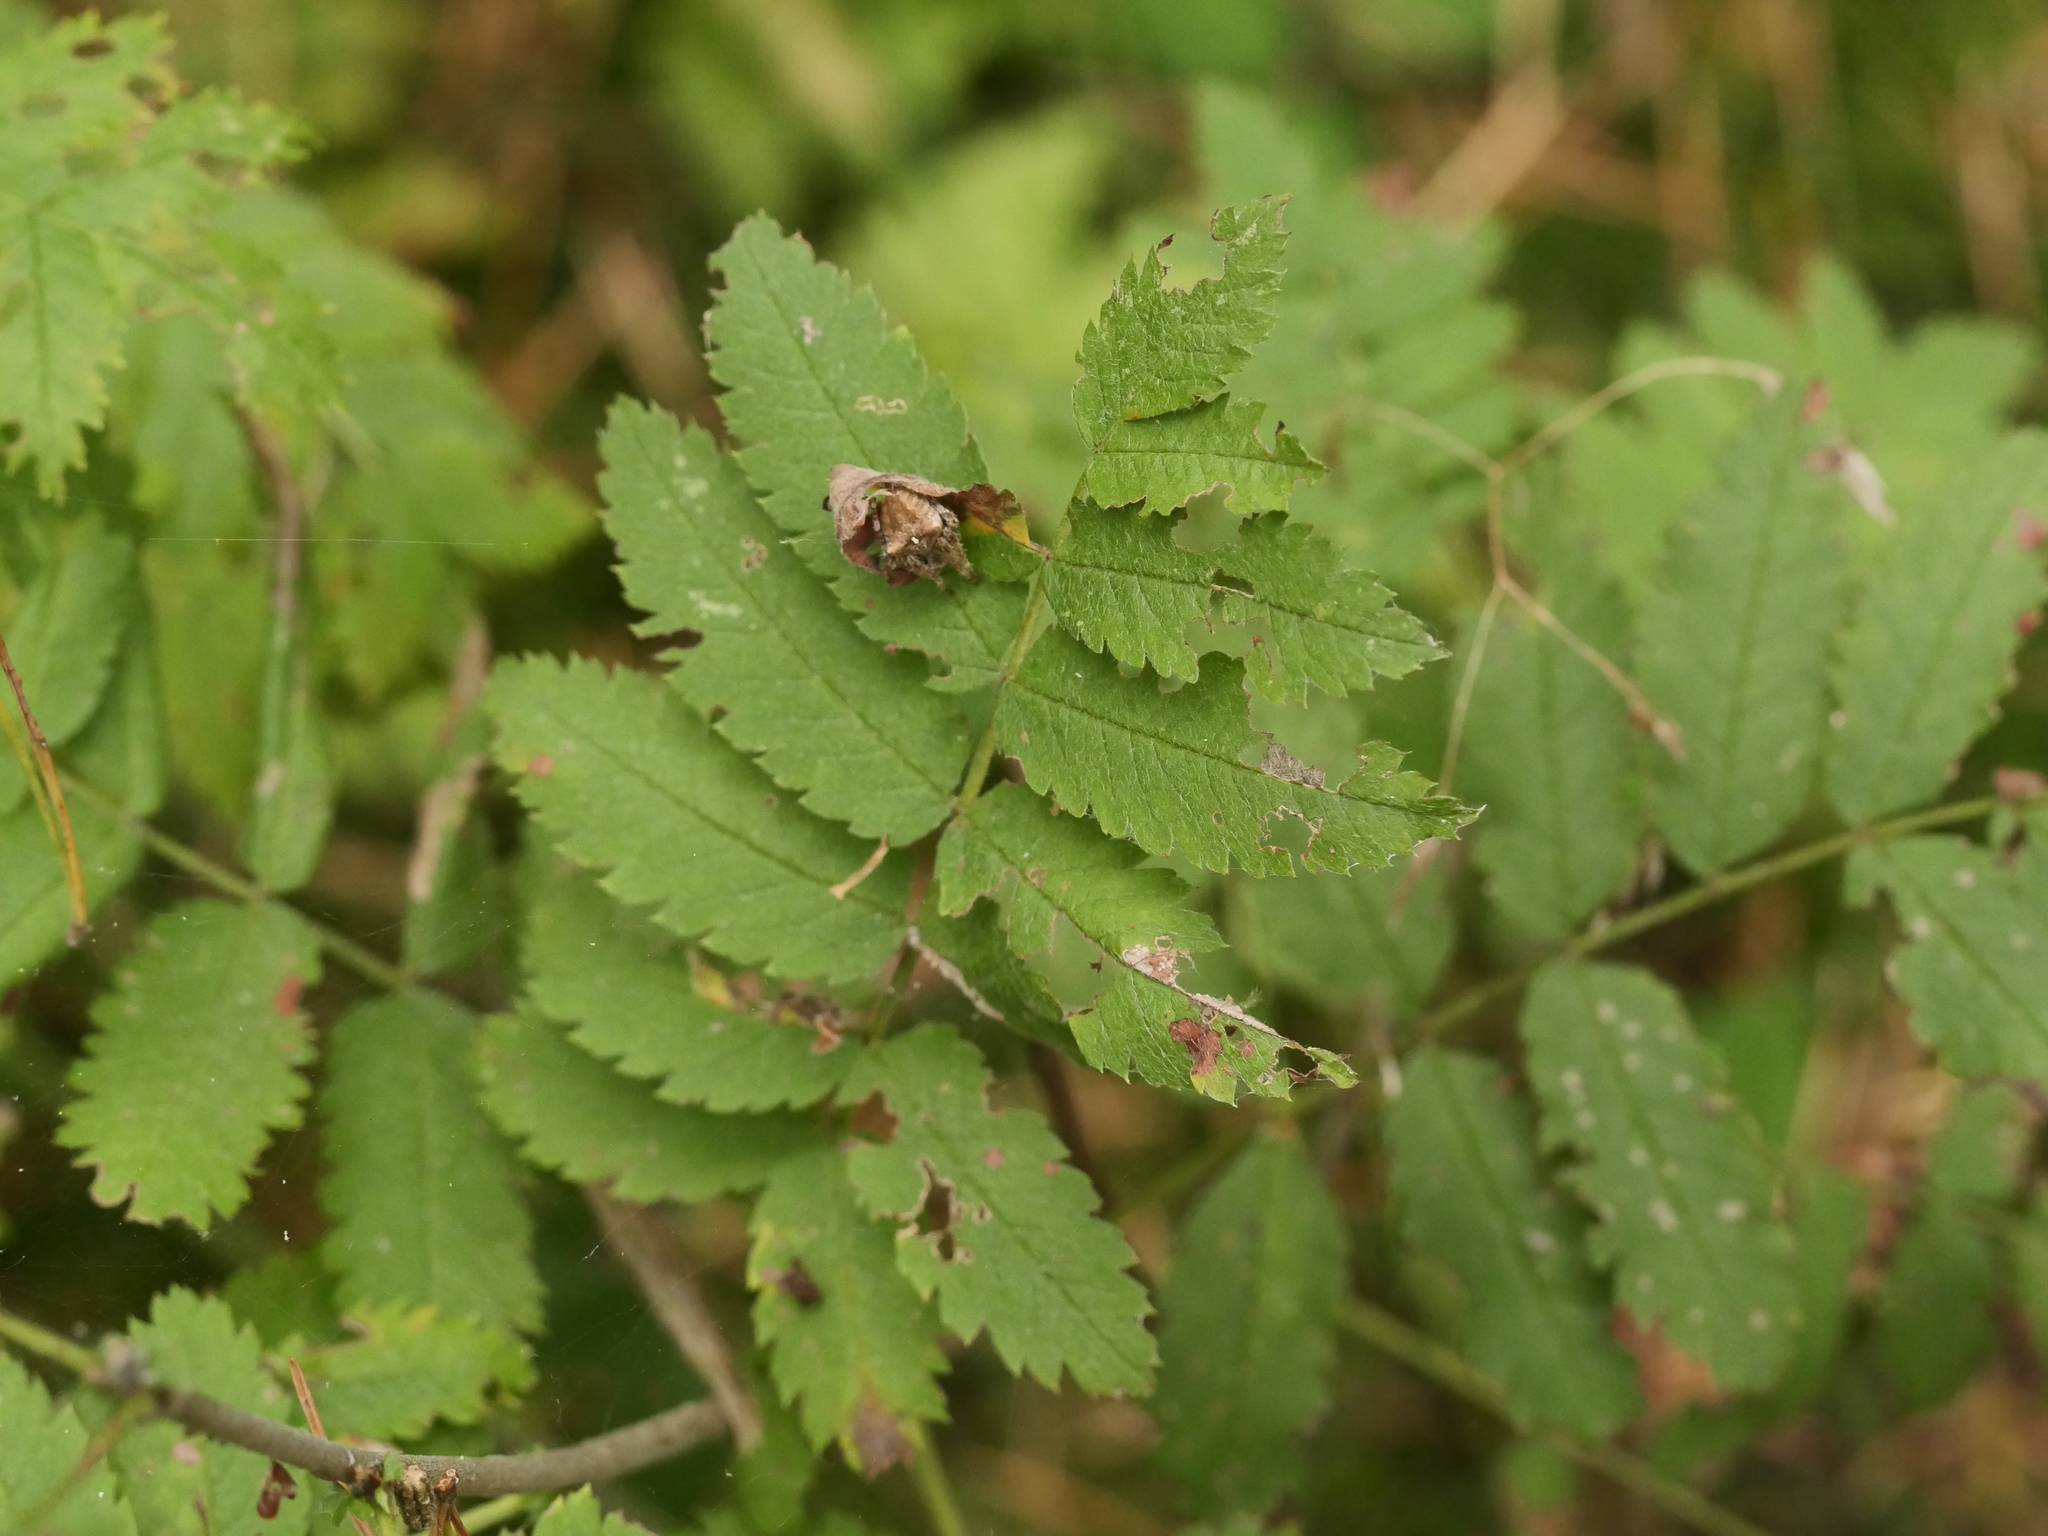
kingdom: Plantae
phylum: Tracheophyta
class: Magnoliopsida
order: Rosales
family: Rosaceae
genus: Sorbus
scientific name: Sorbus aucuparia
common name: Rowan
